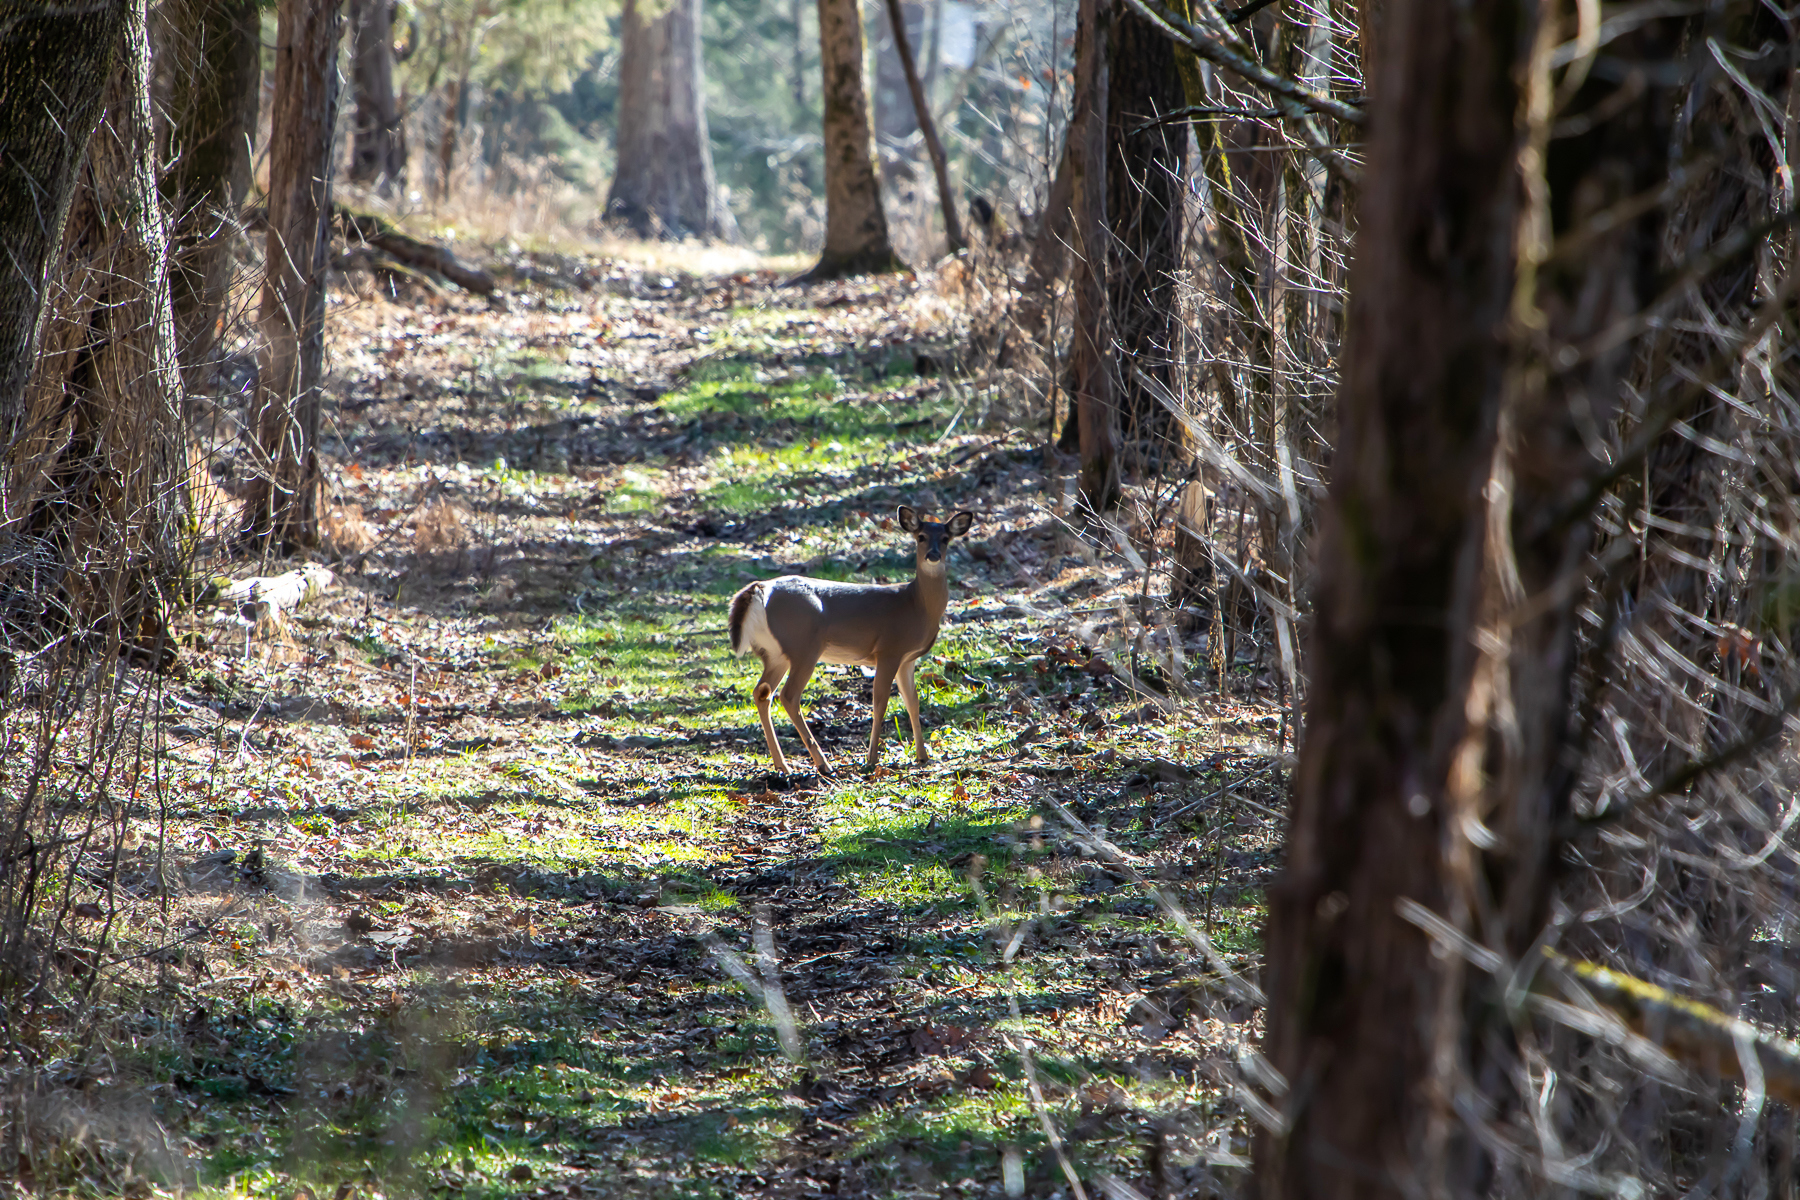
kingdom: Animalia
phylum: Chordata
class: Mammalia
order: Artiodactyla
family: Cervidae
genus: Odocoileus
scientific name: Odocoileus virginianus
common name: White-tailed deer
